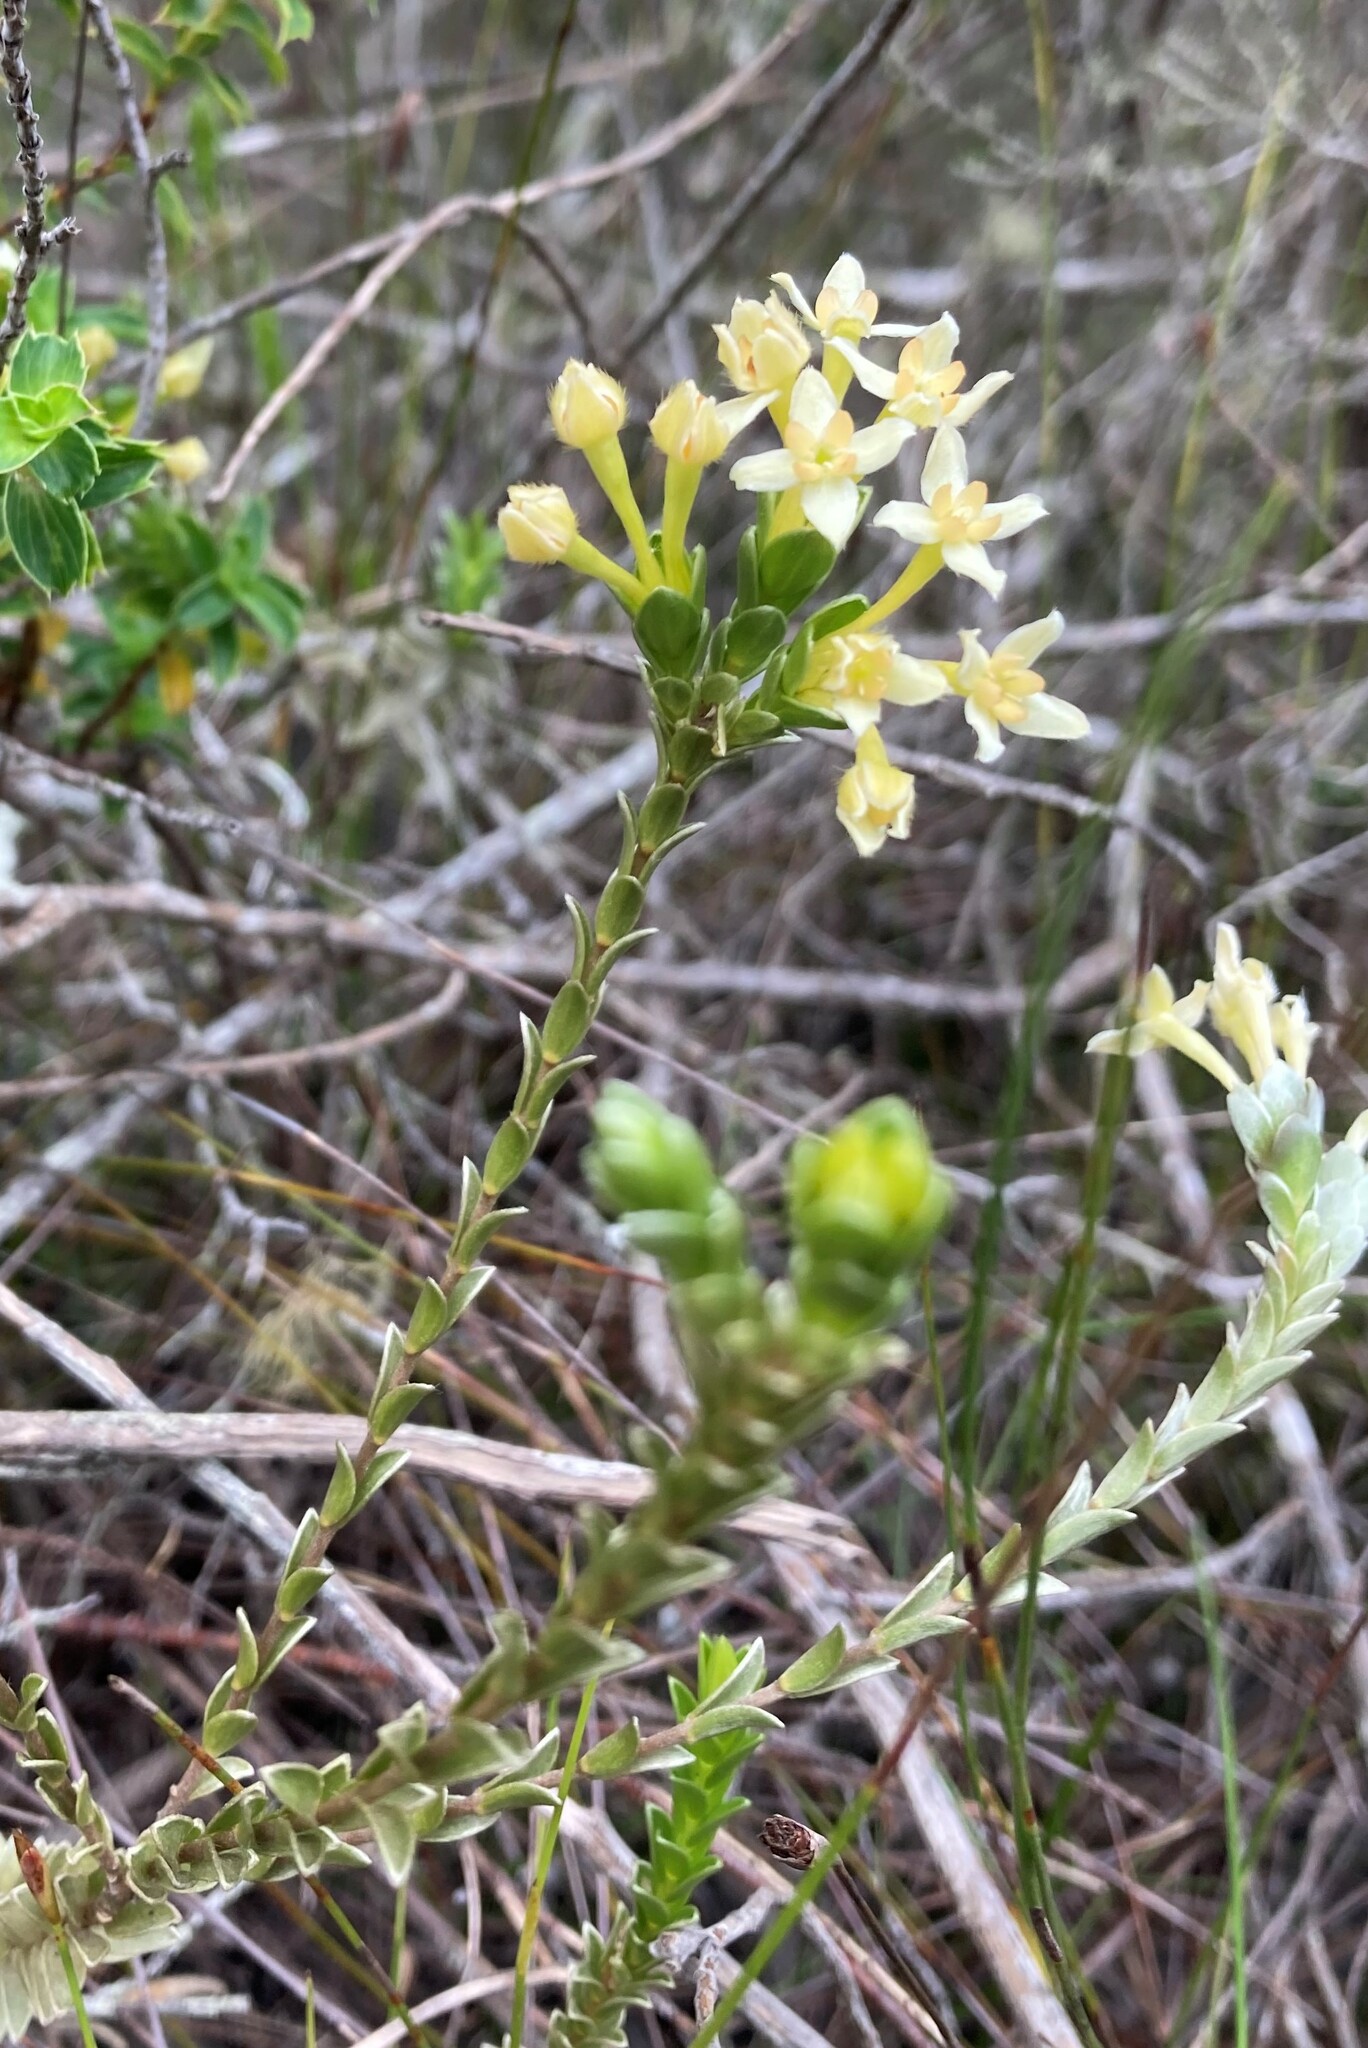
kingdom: Plantae
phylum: Tracheophyta
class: Magnoliopsida
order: Malvales
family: Thymelaeaceae
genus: Gnidia
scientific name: Gnidia chrysophylla
